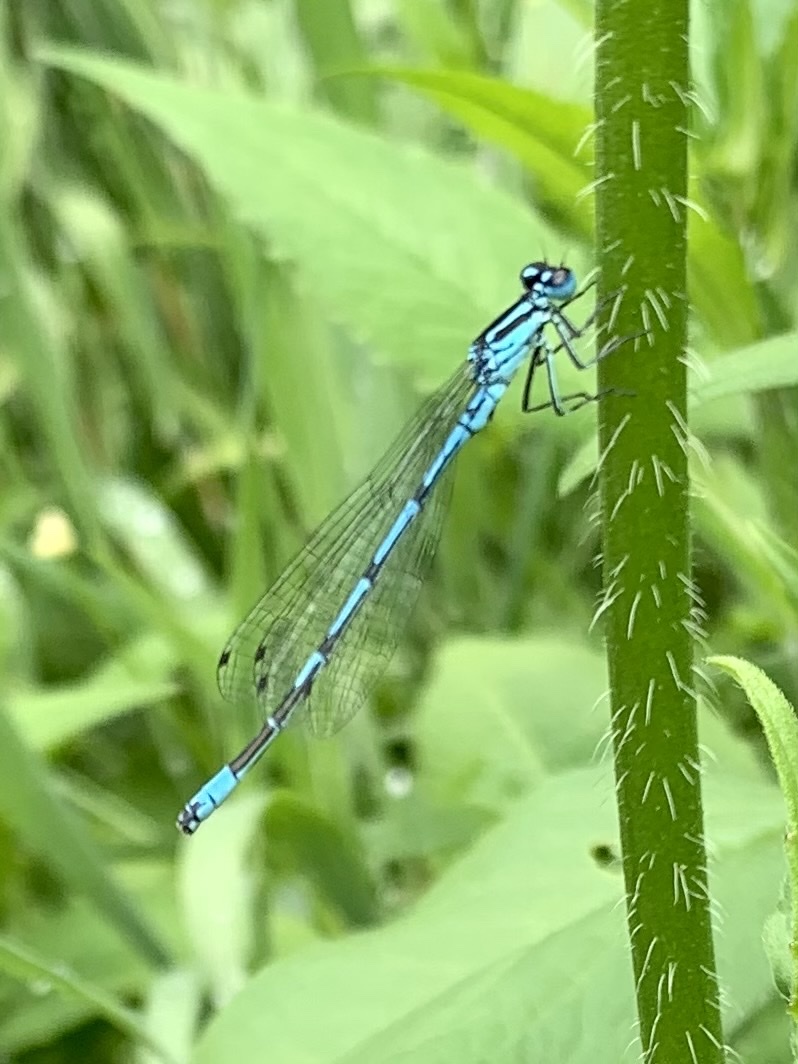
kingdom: Animalia
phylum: Arthropoda
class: Insecta
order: Odonata
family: Coenagrionidae
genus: Coenagrion
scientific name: Coenagrion puella
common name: Azure damselfly
